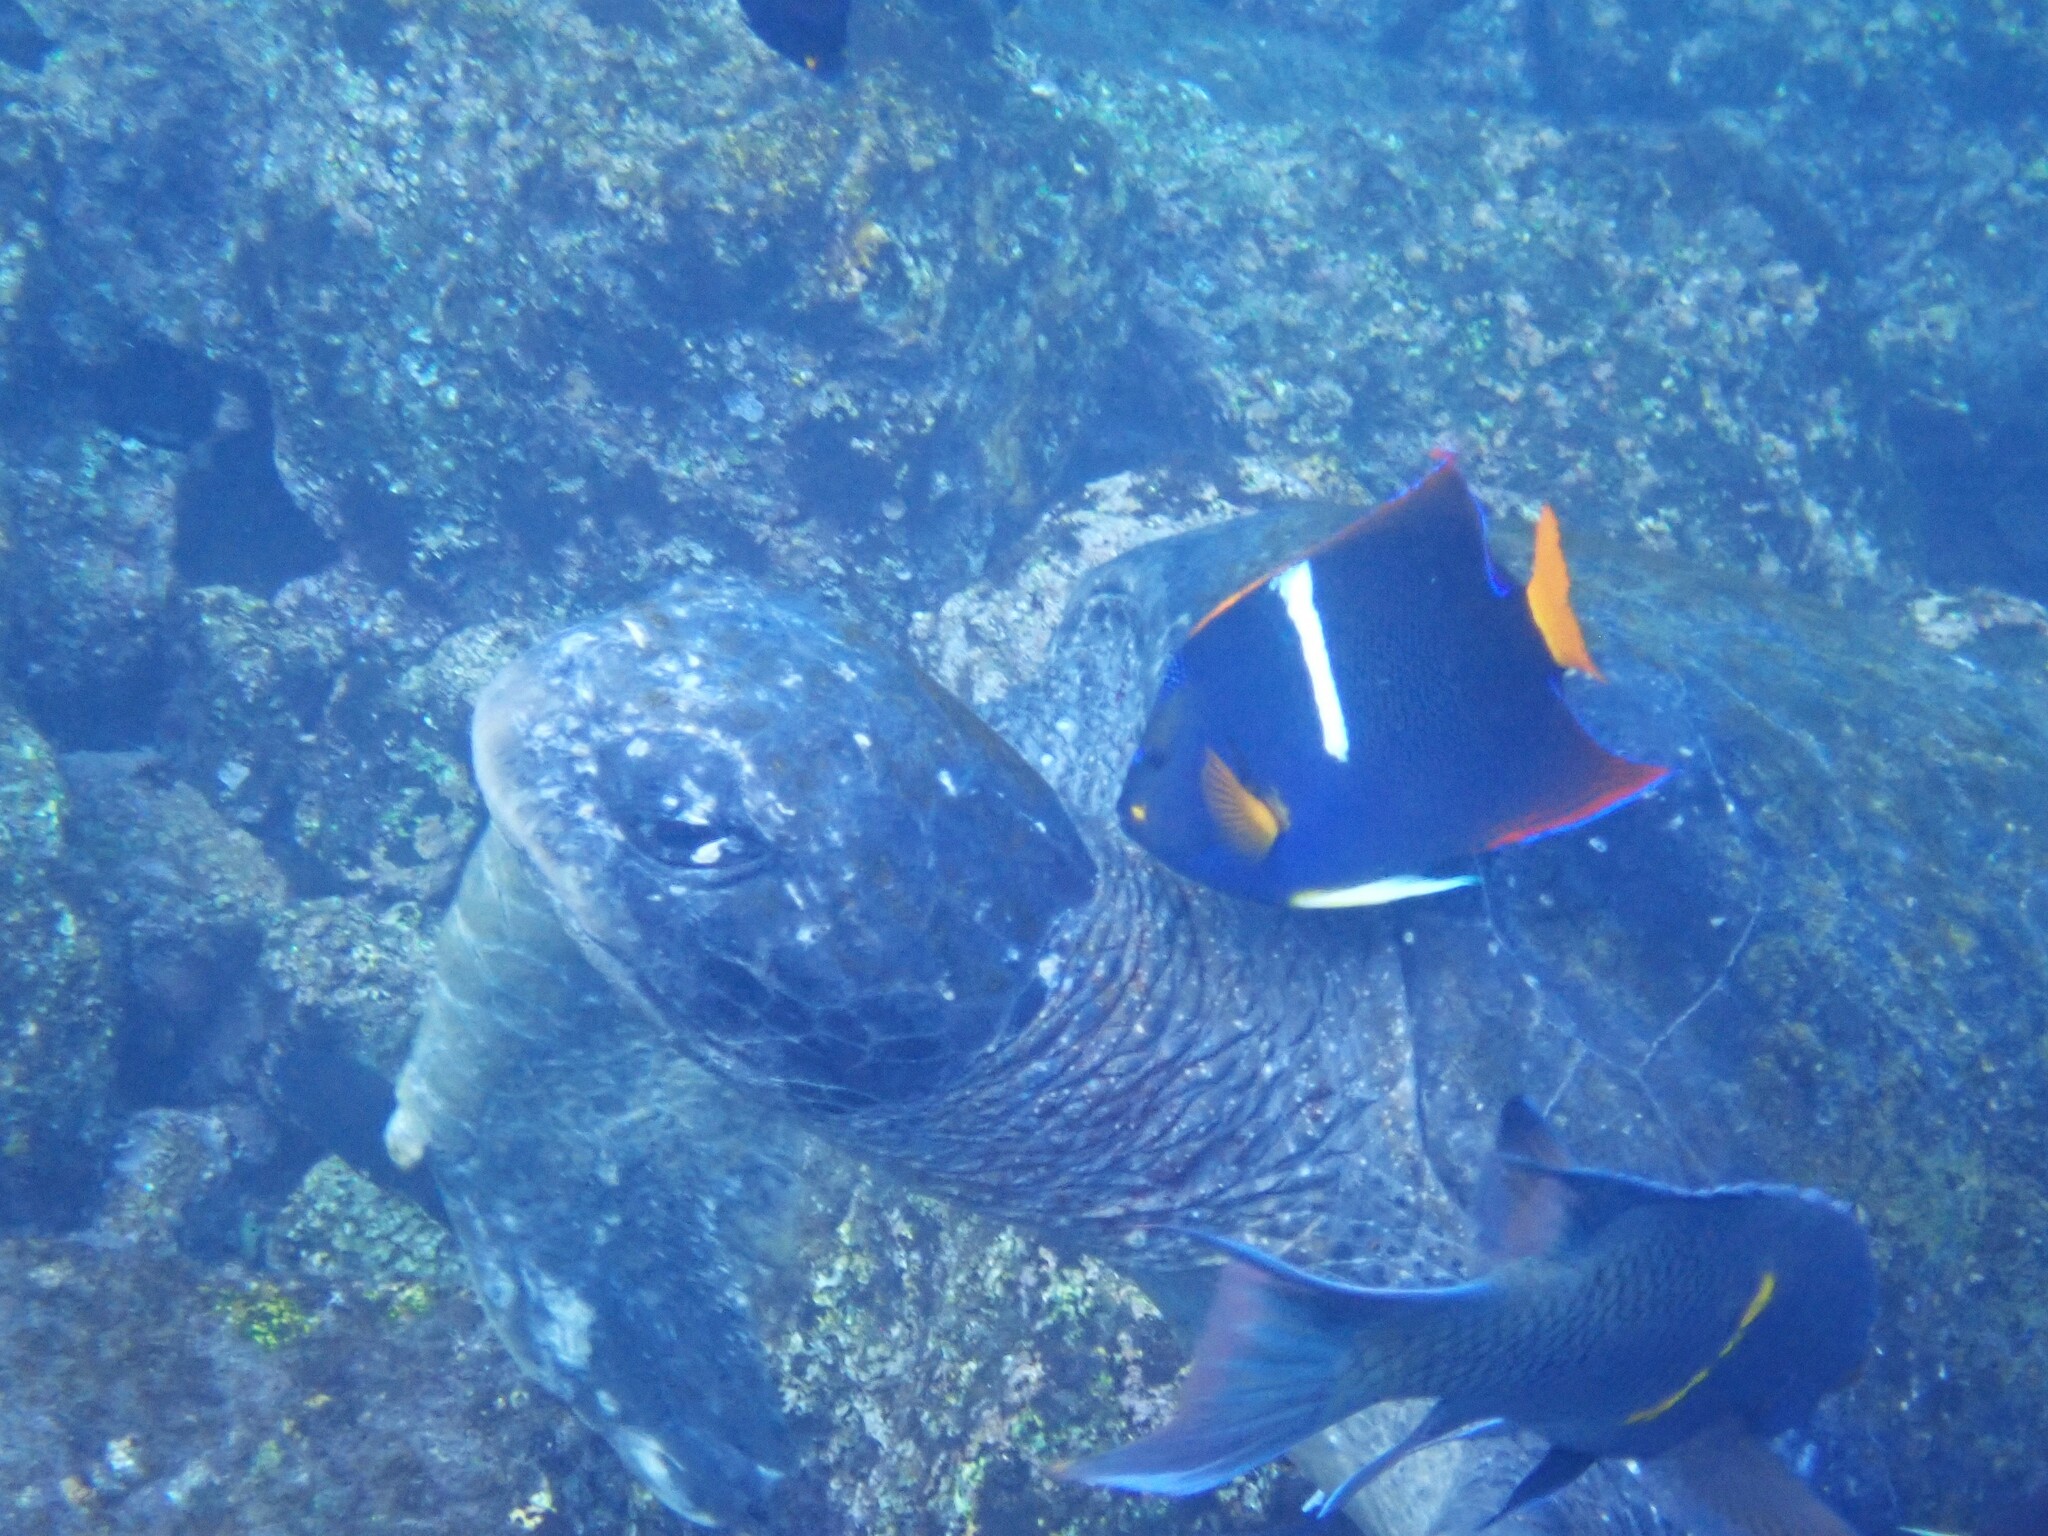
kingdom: Animalia
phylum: Chordata
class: Testudines
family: Cheloniidae
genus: Chelonia
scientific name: Chelonia mydas
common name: Green turtle
